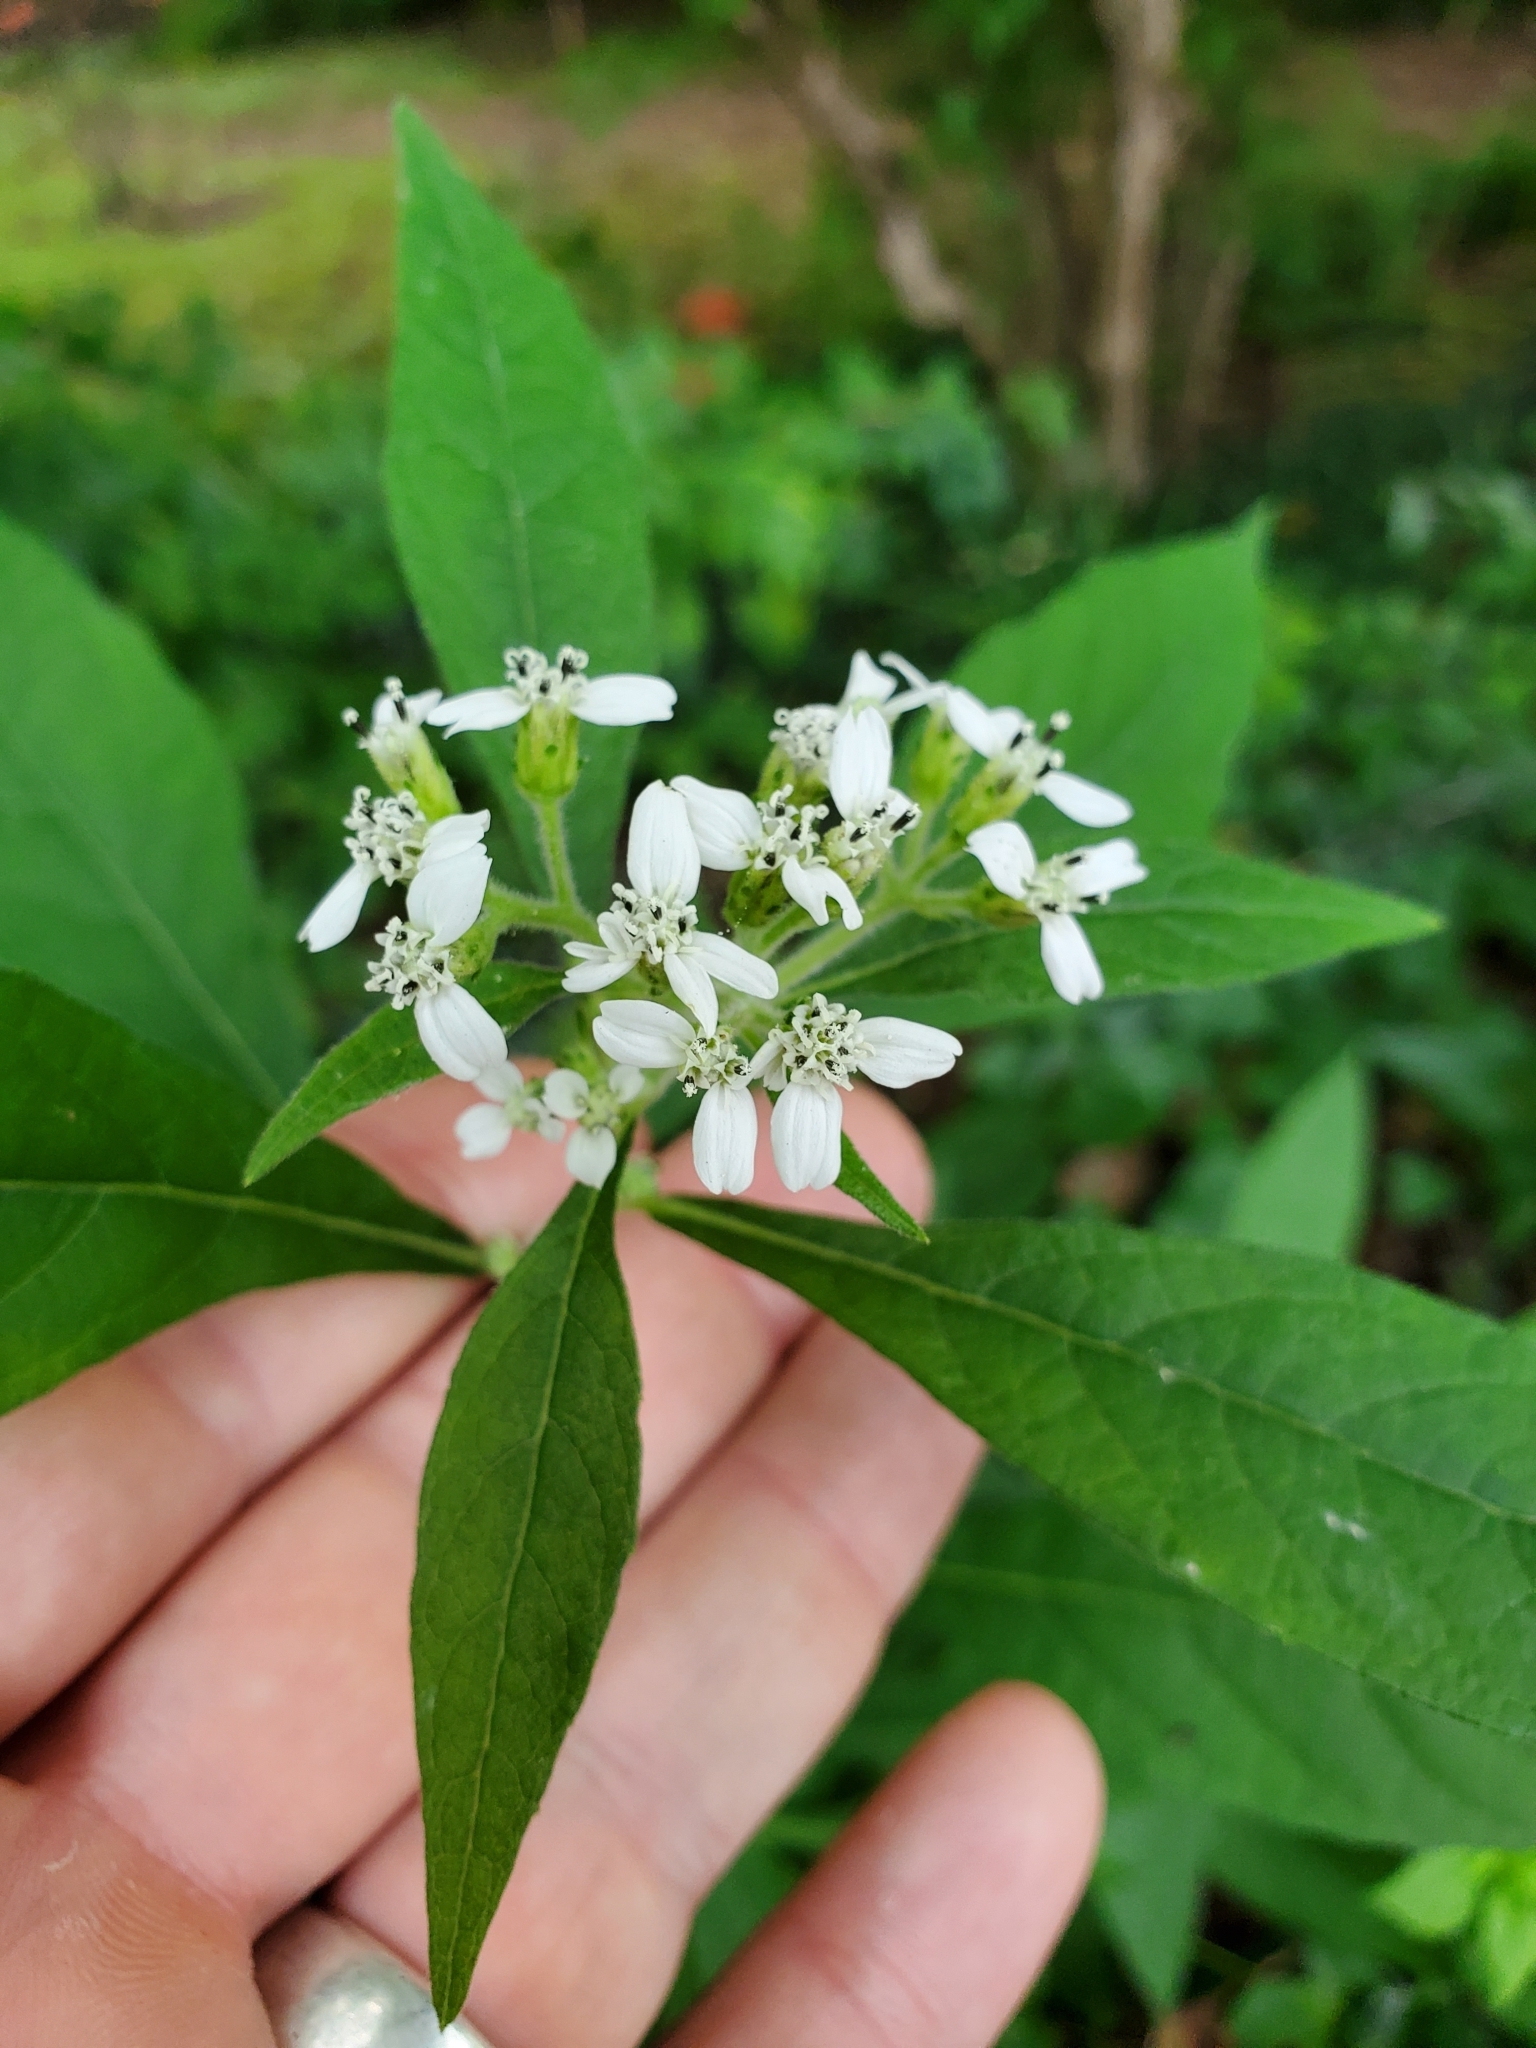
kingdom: Plantae
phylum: Tracheophyta
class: Magnoliopsida
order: Asterales
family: Asteraceae
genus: Verbesina
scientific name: Verbesina virginica
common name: Frostweed
